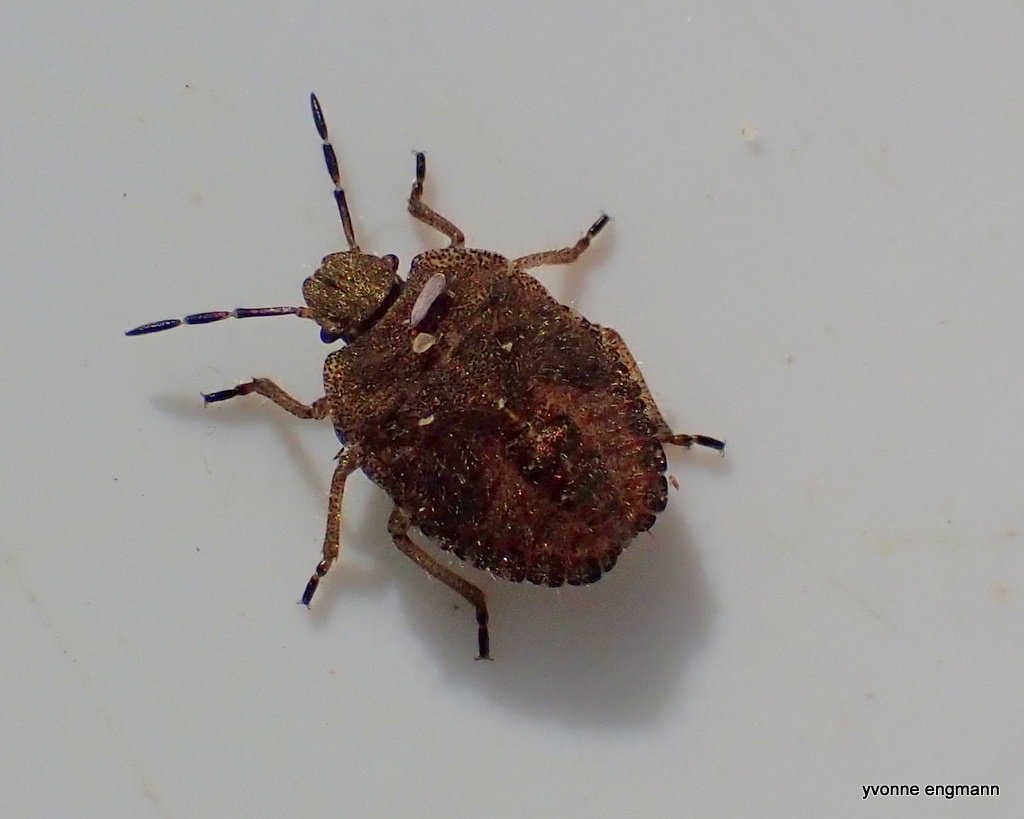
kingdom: Animalia
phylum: Arthropoda
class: Insecta
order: Hemiptera
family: Pentatomidae
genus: Dolycoris
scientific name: Dolycoris baccarum
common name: Sloe bug
